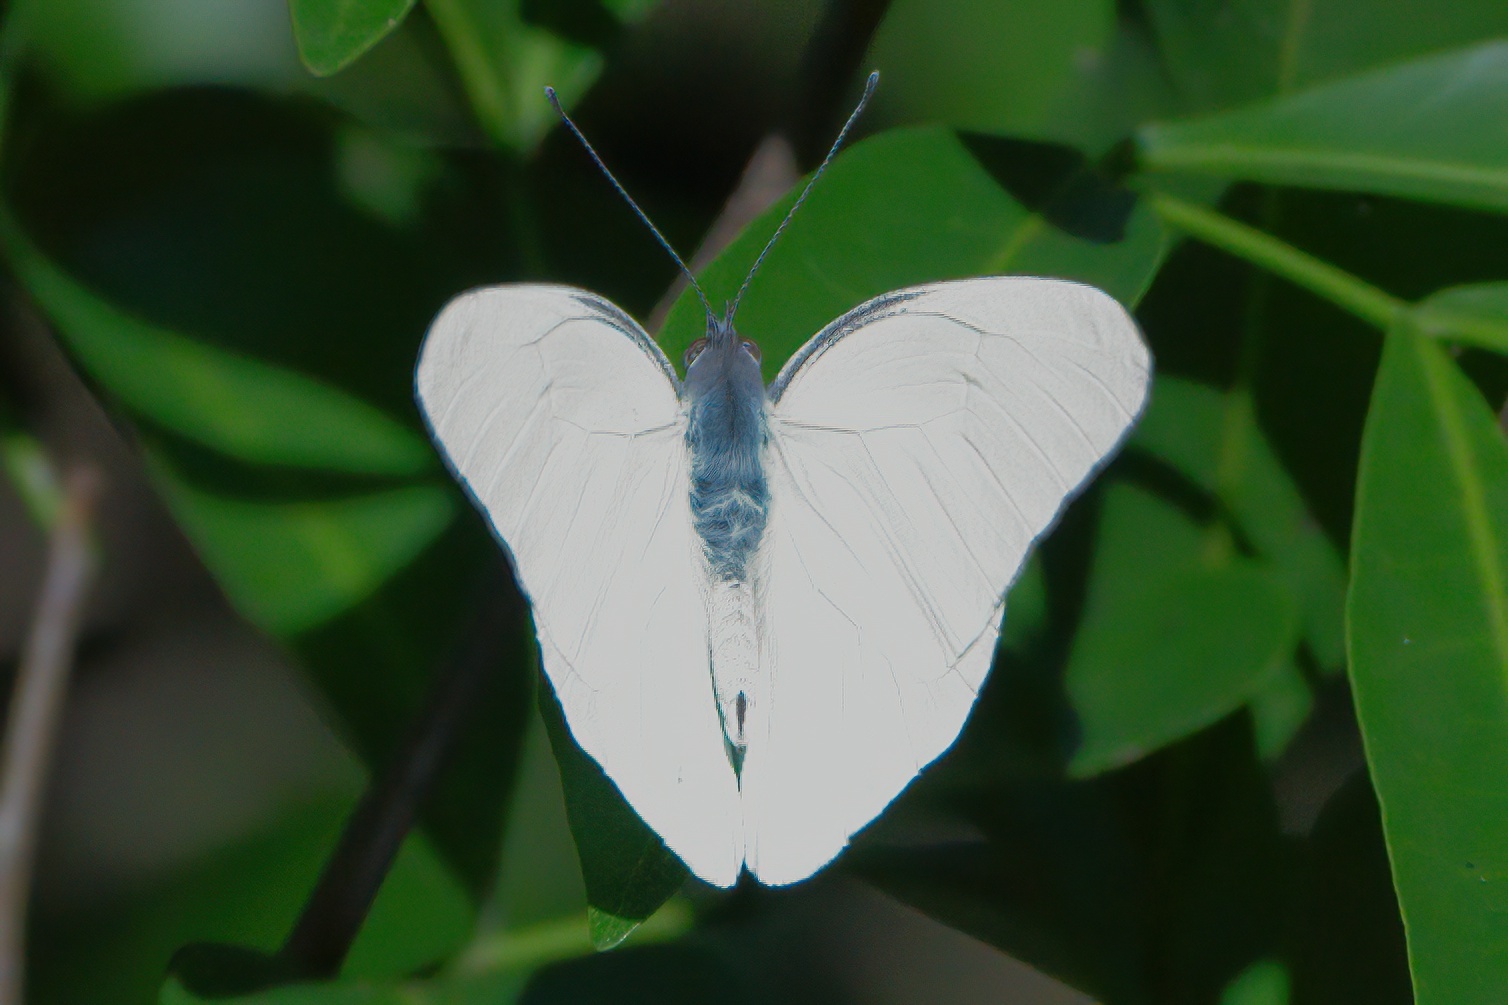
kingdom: Animalia
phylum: Arthropoda
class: Insecta
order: Lepidoptera
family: Pieridae
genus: Glutophrissa
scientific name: Glutophrissa drusilla
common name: Florida white
